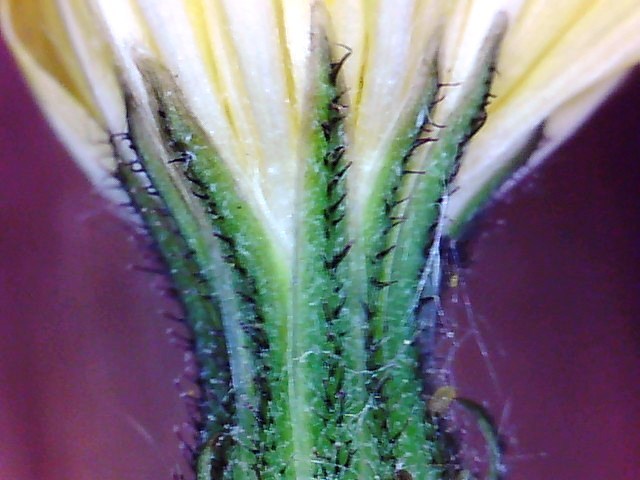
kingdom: Plantae
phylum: Tracheophyta
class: Magnoliopsida
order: Asterales
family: Asteraceae
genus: Crepis
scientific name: Crepis capillaris
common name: Smooth hawksbeard
